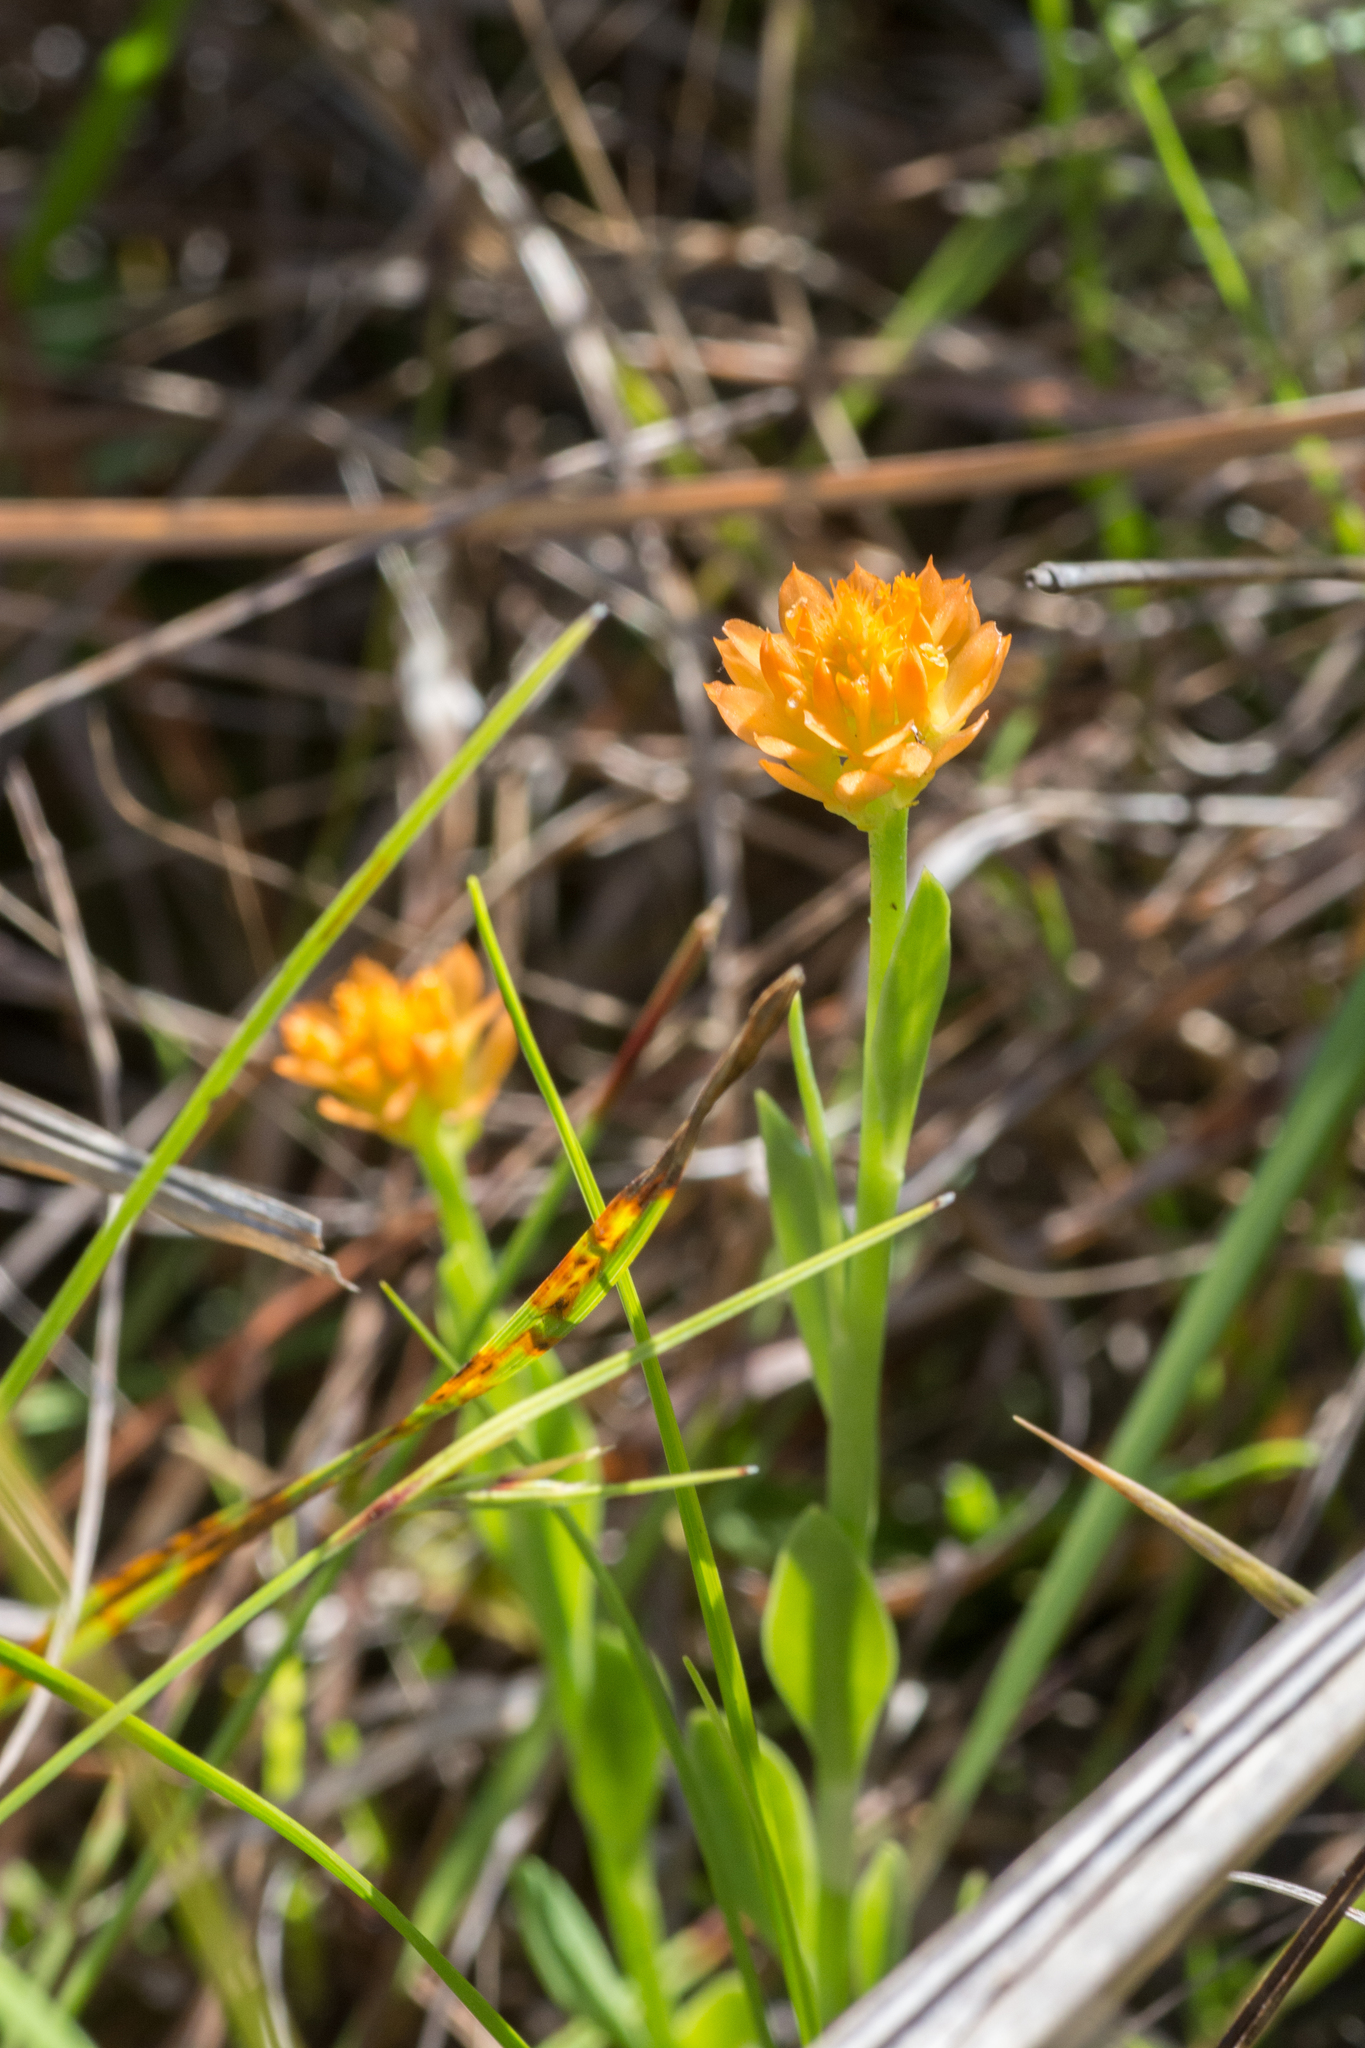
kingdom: Plantae
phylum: Tracheophyta
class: Magnoliopsida
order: Fabales
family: Polygalaceae
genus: Polygala
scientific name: Polygala lutea
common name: Orange milkwort
